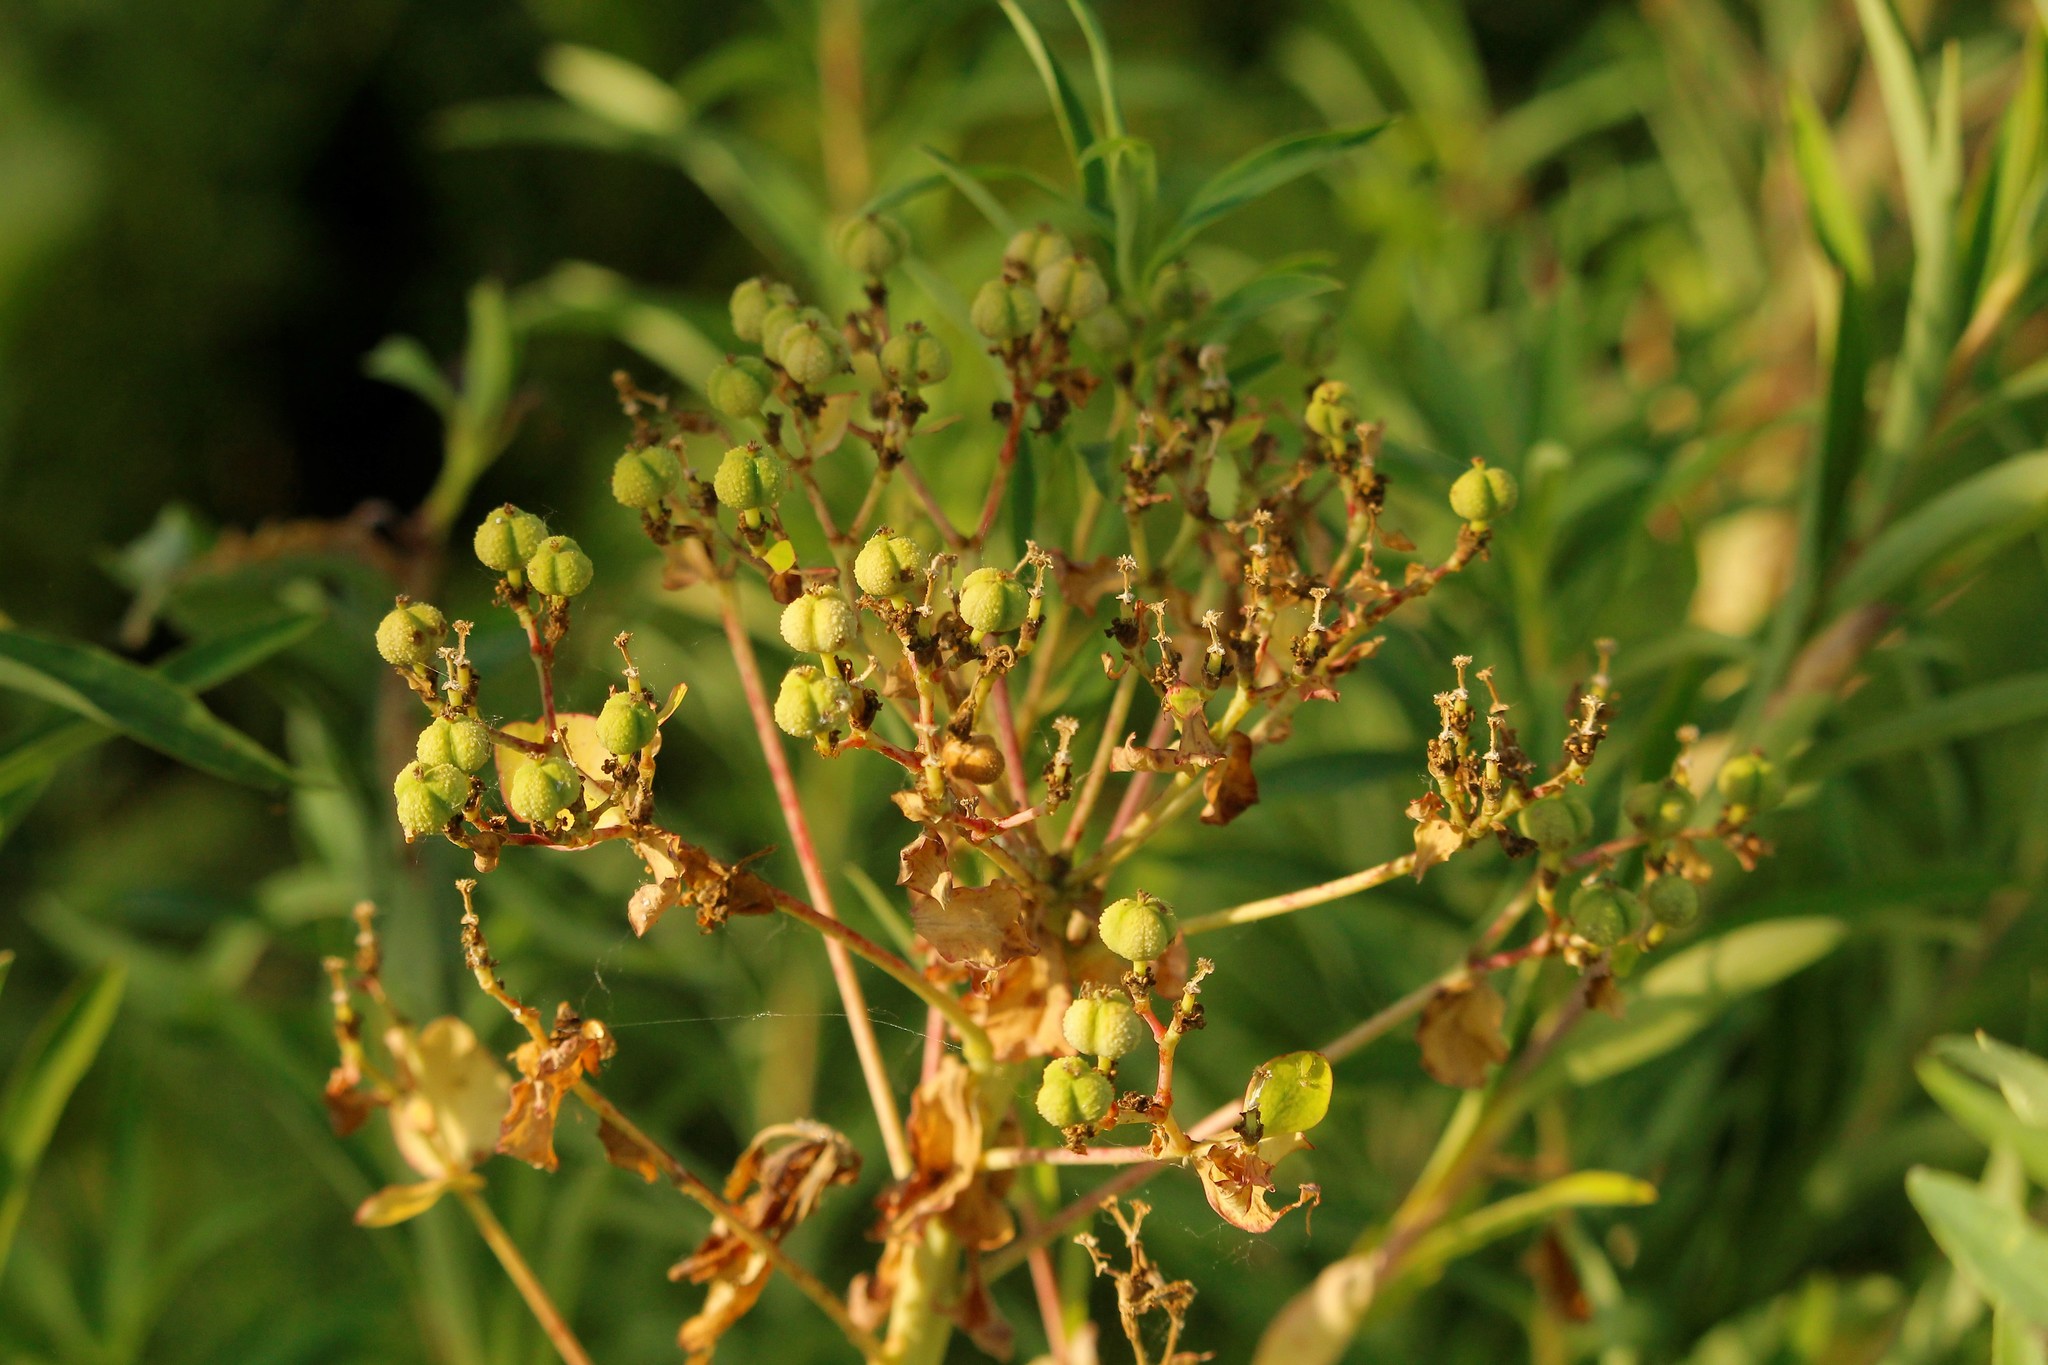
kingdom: Plantae
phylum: Tracheophyta
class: Magnoliopsida
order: Malpighiales
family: Euphorbiaceae
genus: Euphorbia
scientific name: Euphorbia palustris
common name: Marsh spurge
